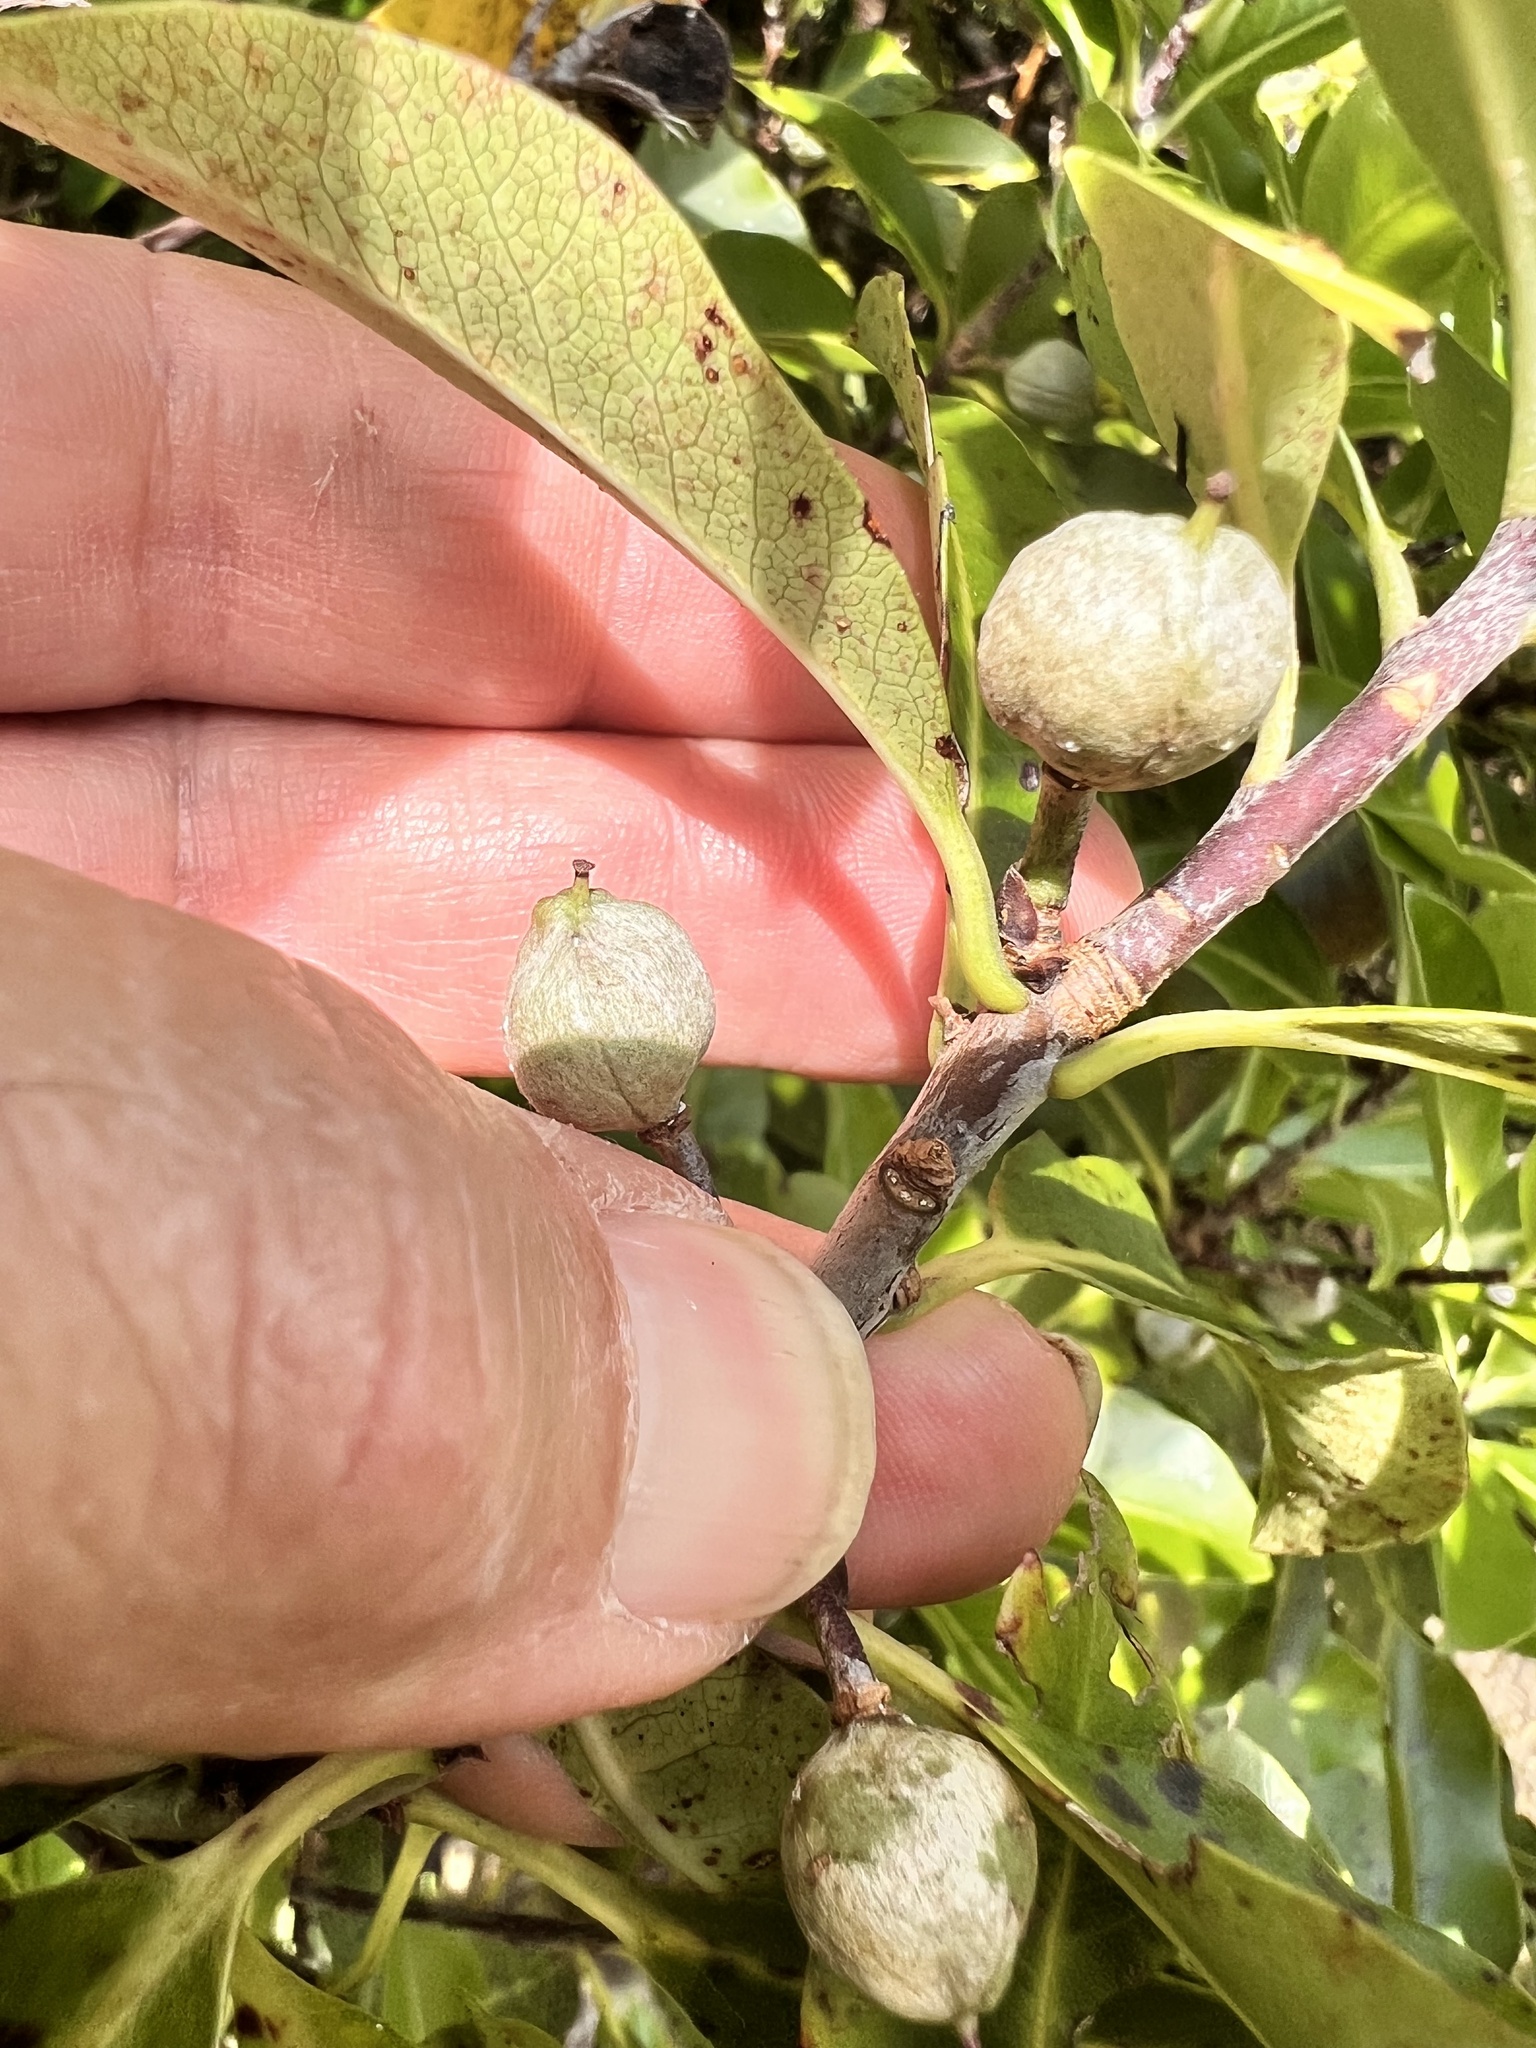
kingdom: Plantae
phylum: Tracheophyta
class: Magnoliopsida
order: Apiales
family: Pittosporaceae
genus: Pittosporum
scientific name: Pittosporum colensoi
